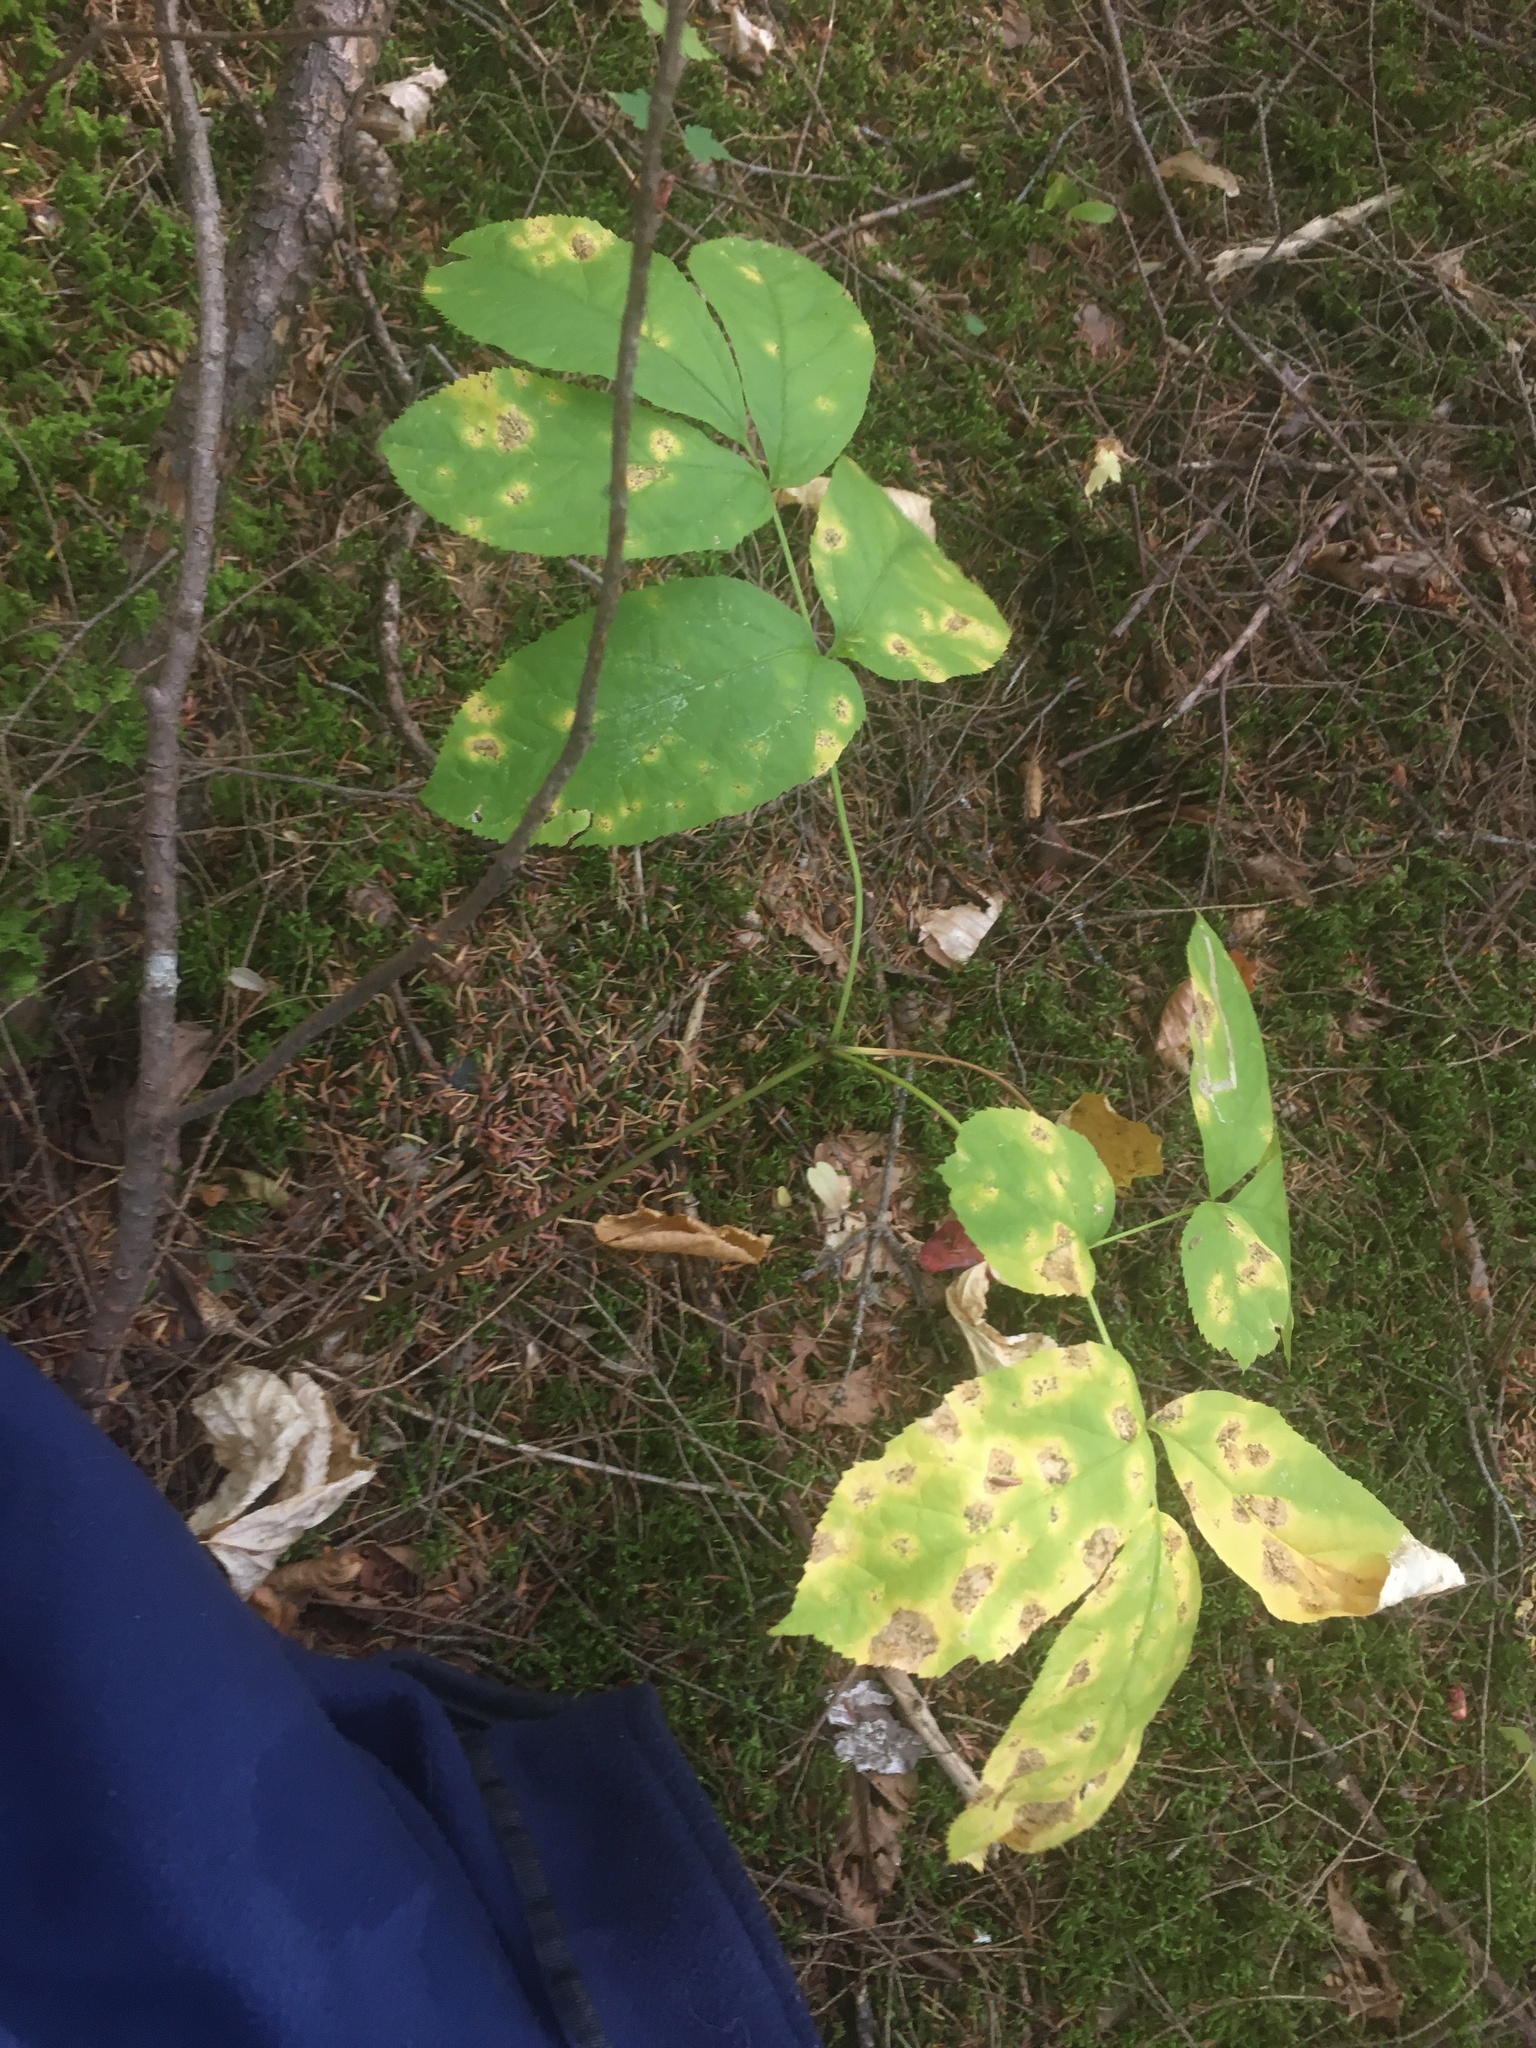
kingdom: Plantae
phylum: Tracheophyta
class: Magnoliopsida
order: Apiales
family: Araliaceae
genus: Aralia
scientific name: Aralia nudicaulis
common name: Wild sarsaparilla
